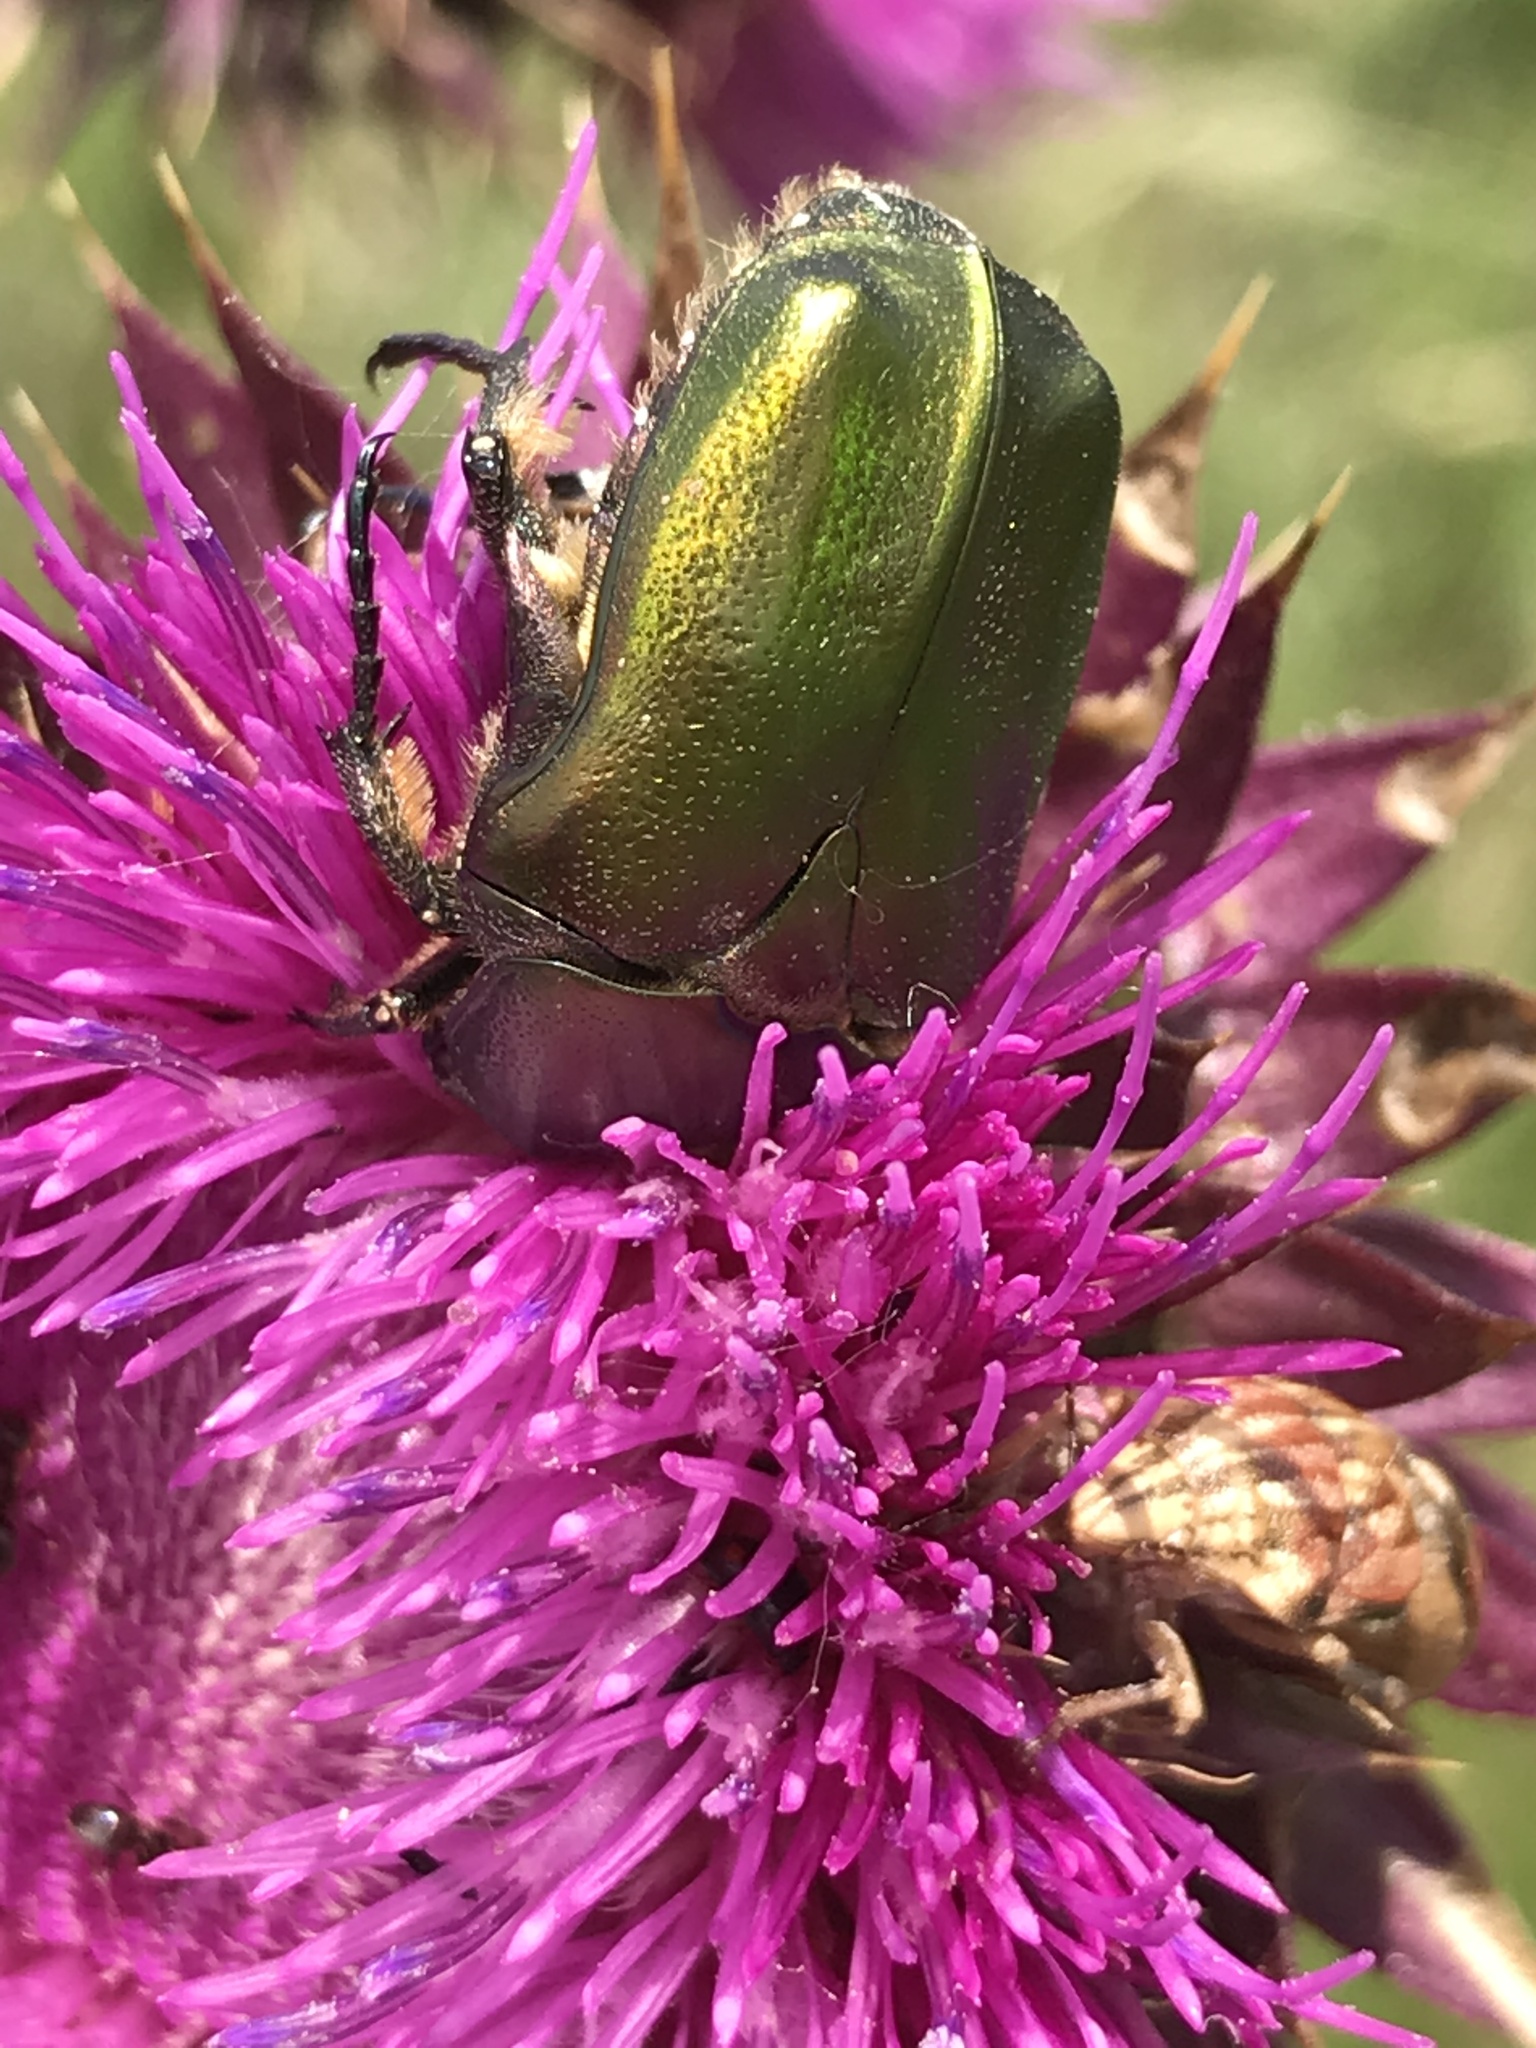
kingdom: Animalia
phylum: Arthropoda
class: Insecta
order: Coleoptera
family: Scarabaeidae
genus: Protaetia
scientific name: Protaetia cuprea
